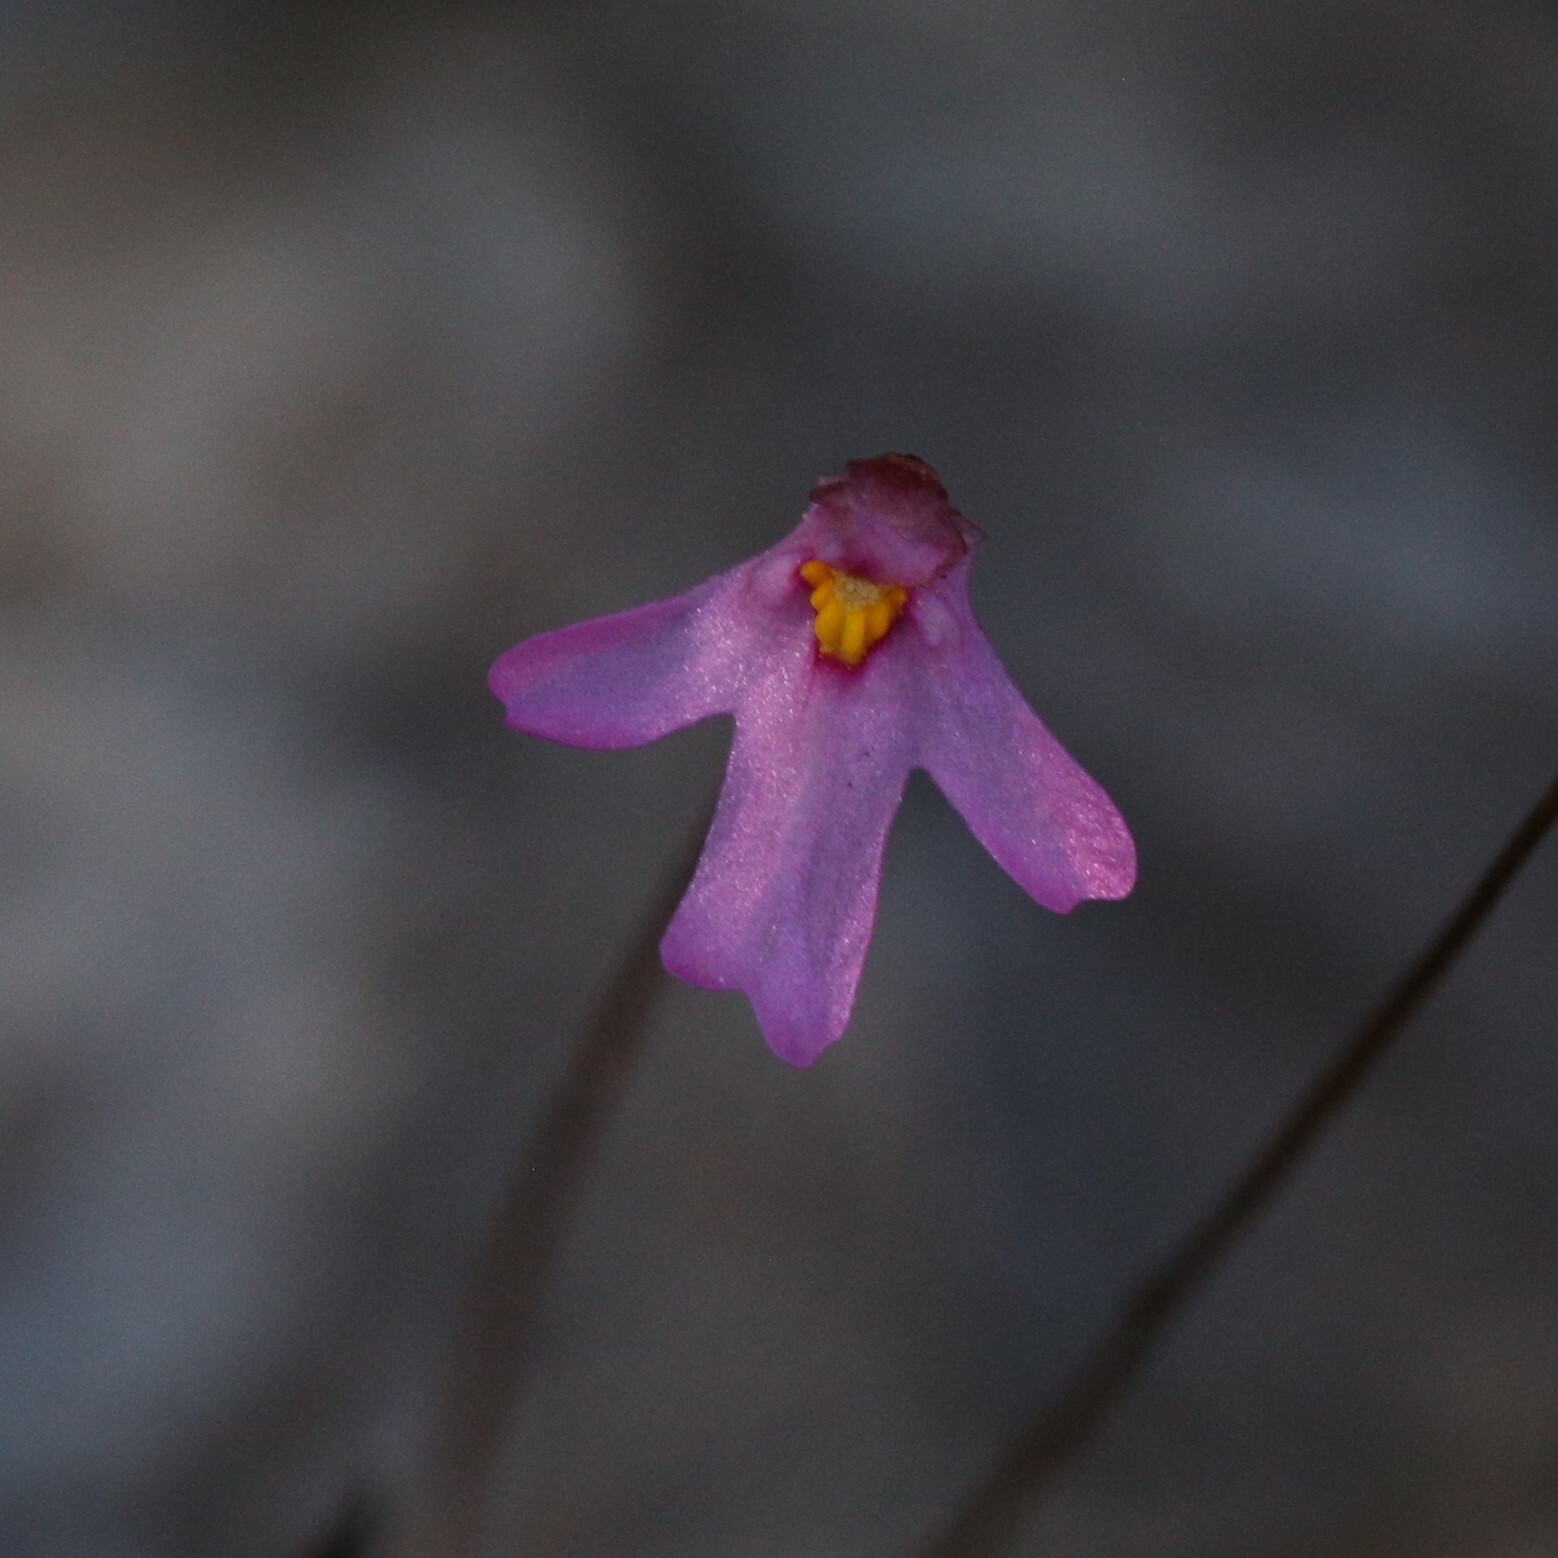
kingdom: Plantae
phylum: Tracheophyta
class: Magnoliopsida
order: Lamiales
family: Lentibulariaceae
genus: Utricularia
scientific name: Utricularia multifida
